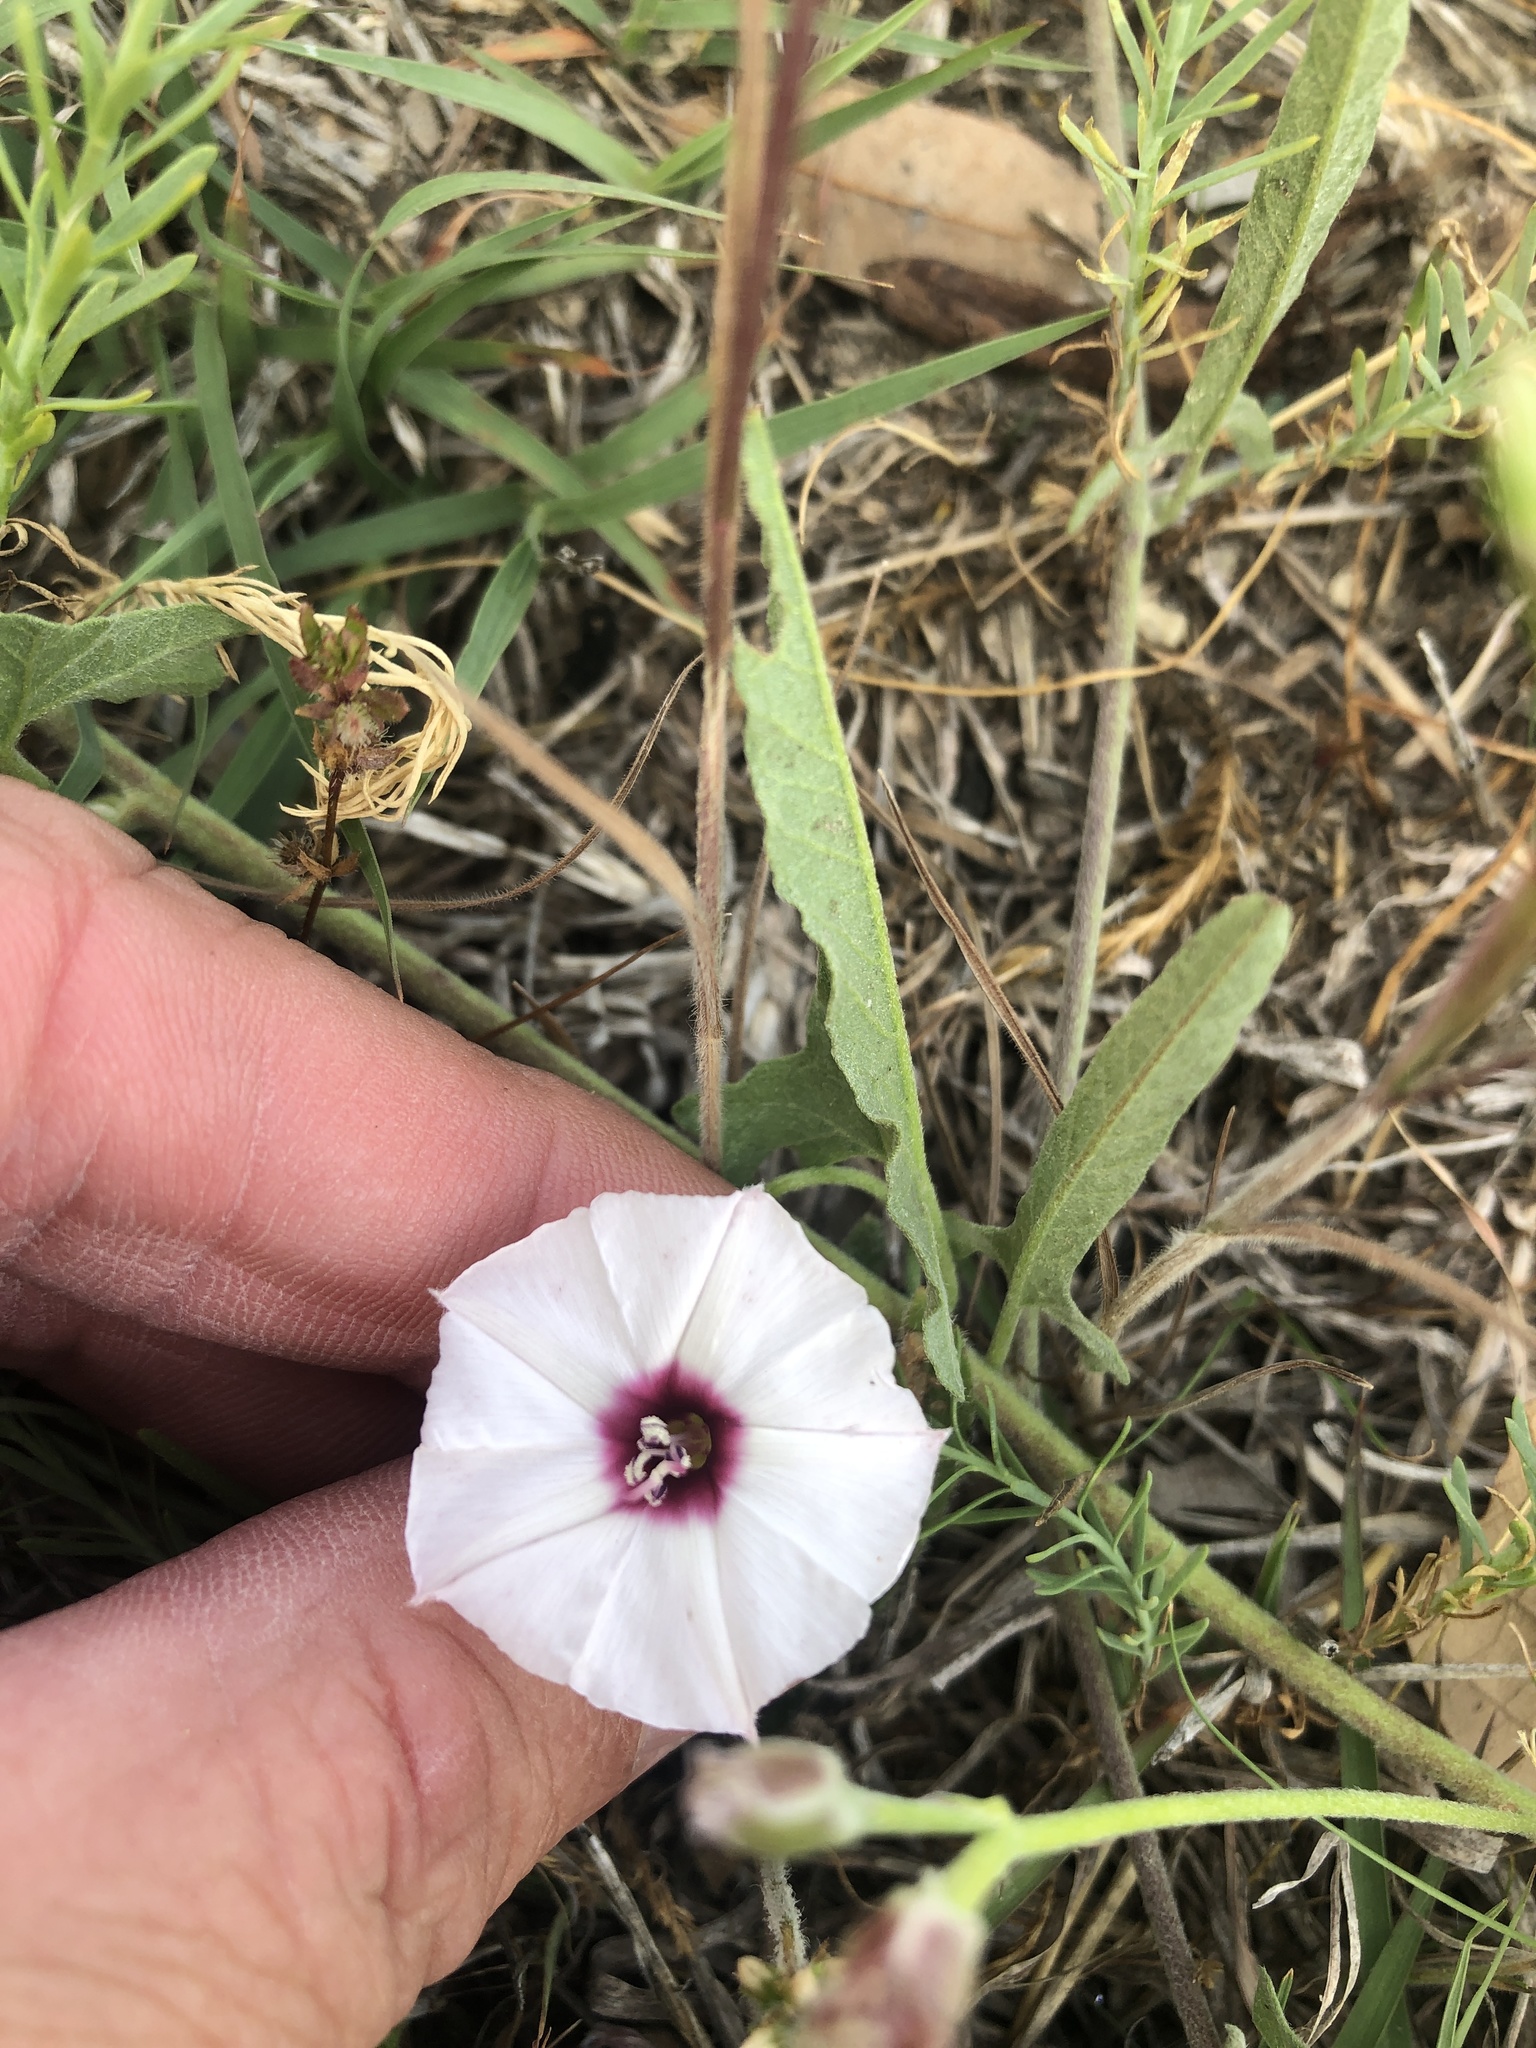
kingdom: Plantae
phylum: Tracheophyta
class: Magnoliopsida
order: Solanales
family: Convolvulaceae
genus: Convolvulus
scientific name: Convolvulus equitans
